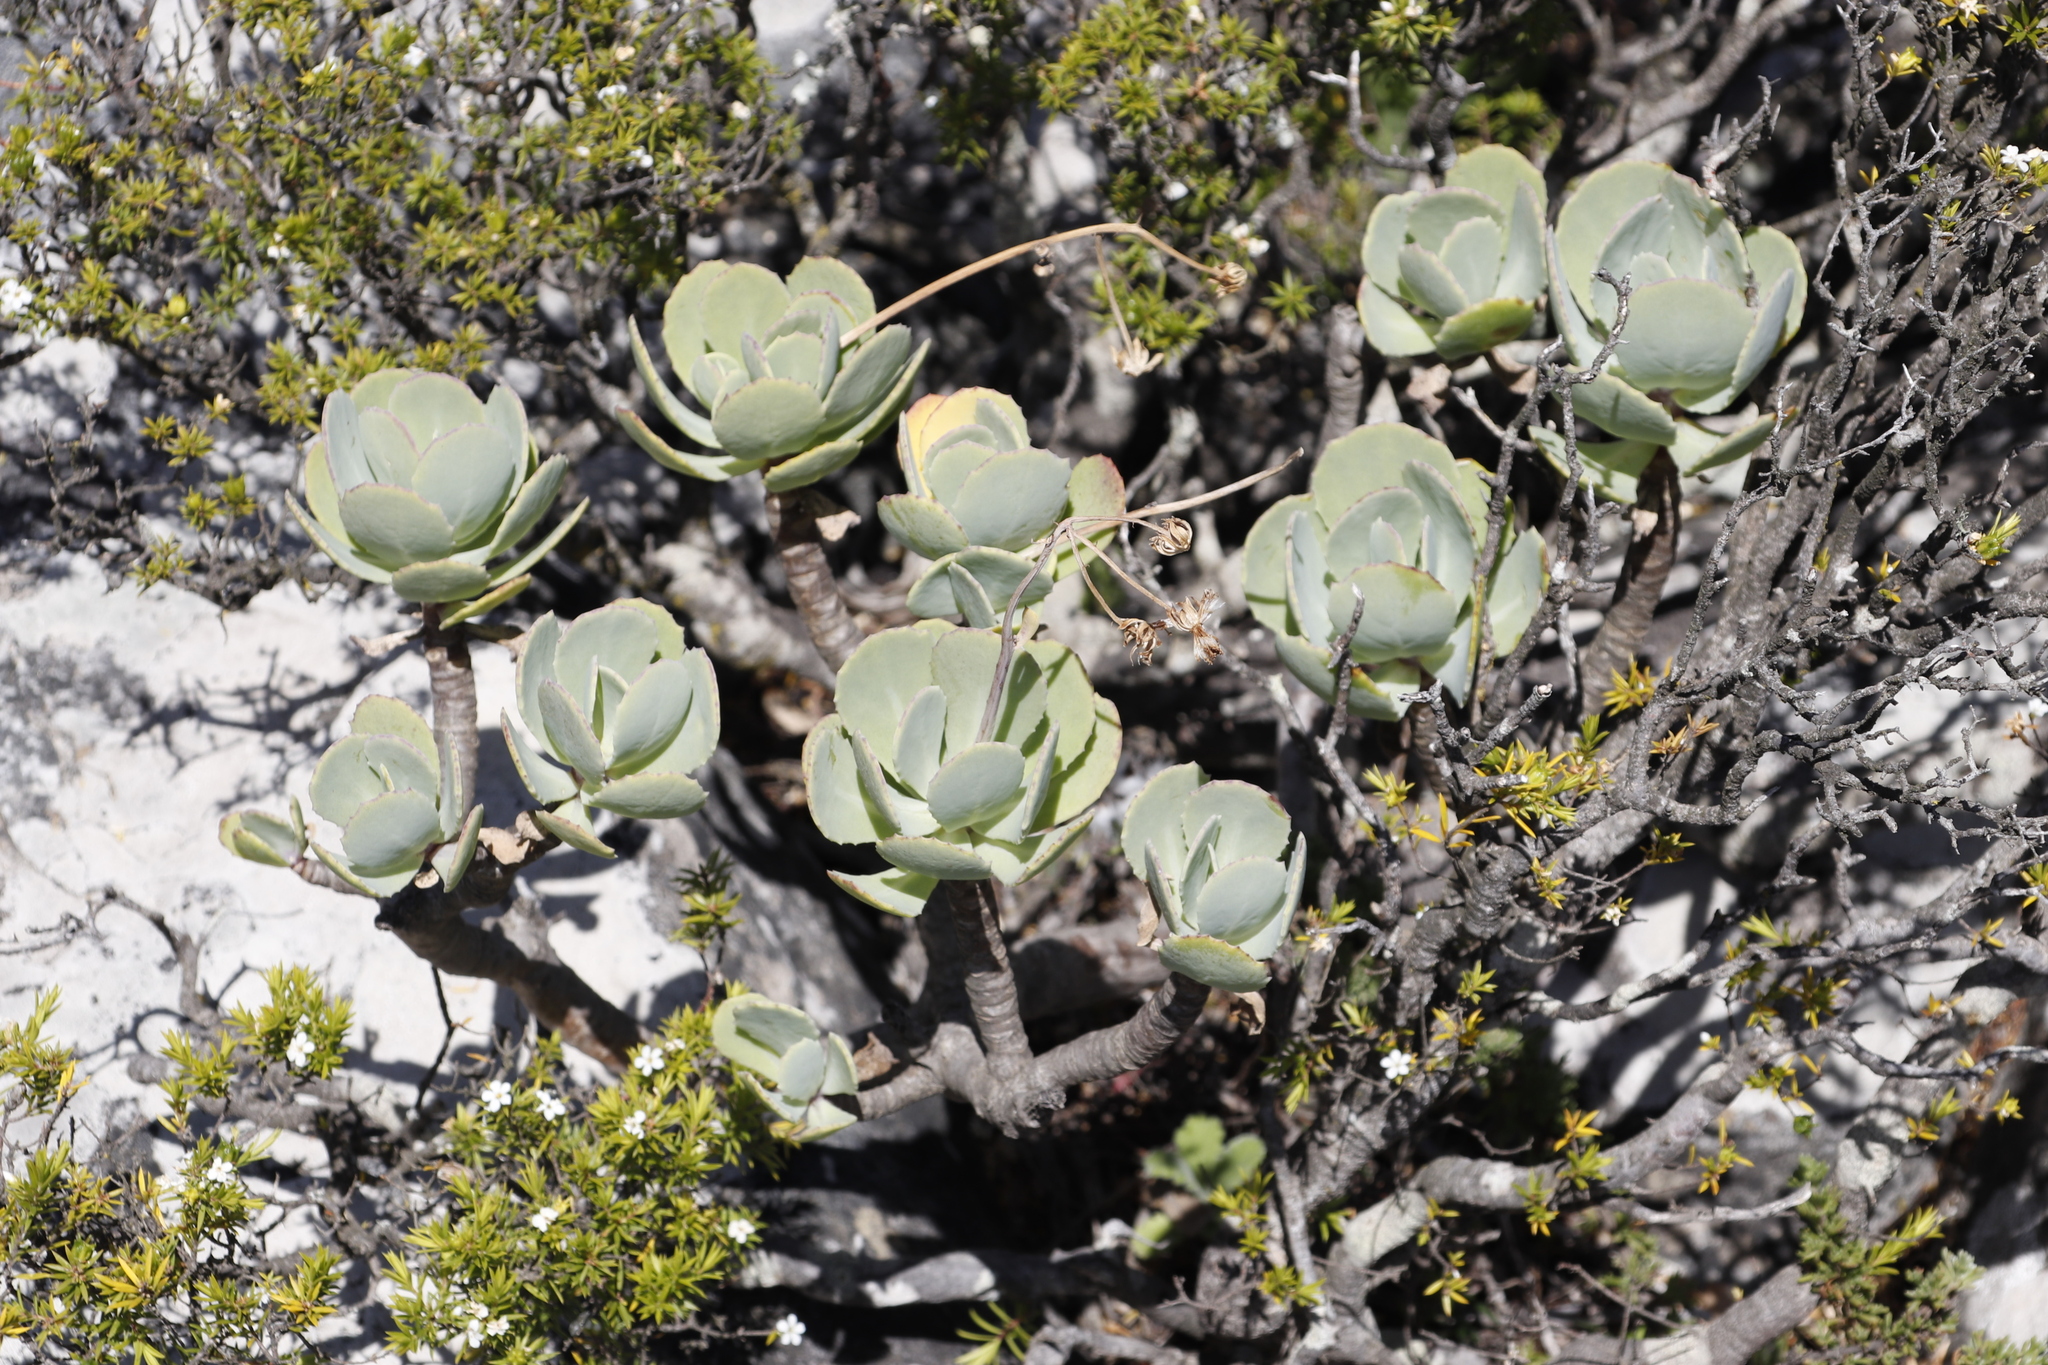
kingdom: Plantae
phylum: Tracheophyta
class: Magnoliopsida
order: Asterales
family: Asteraceae
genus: Othonna
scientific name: Othonna dentata
